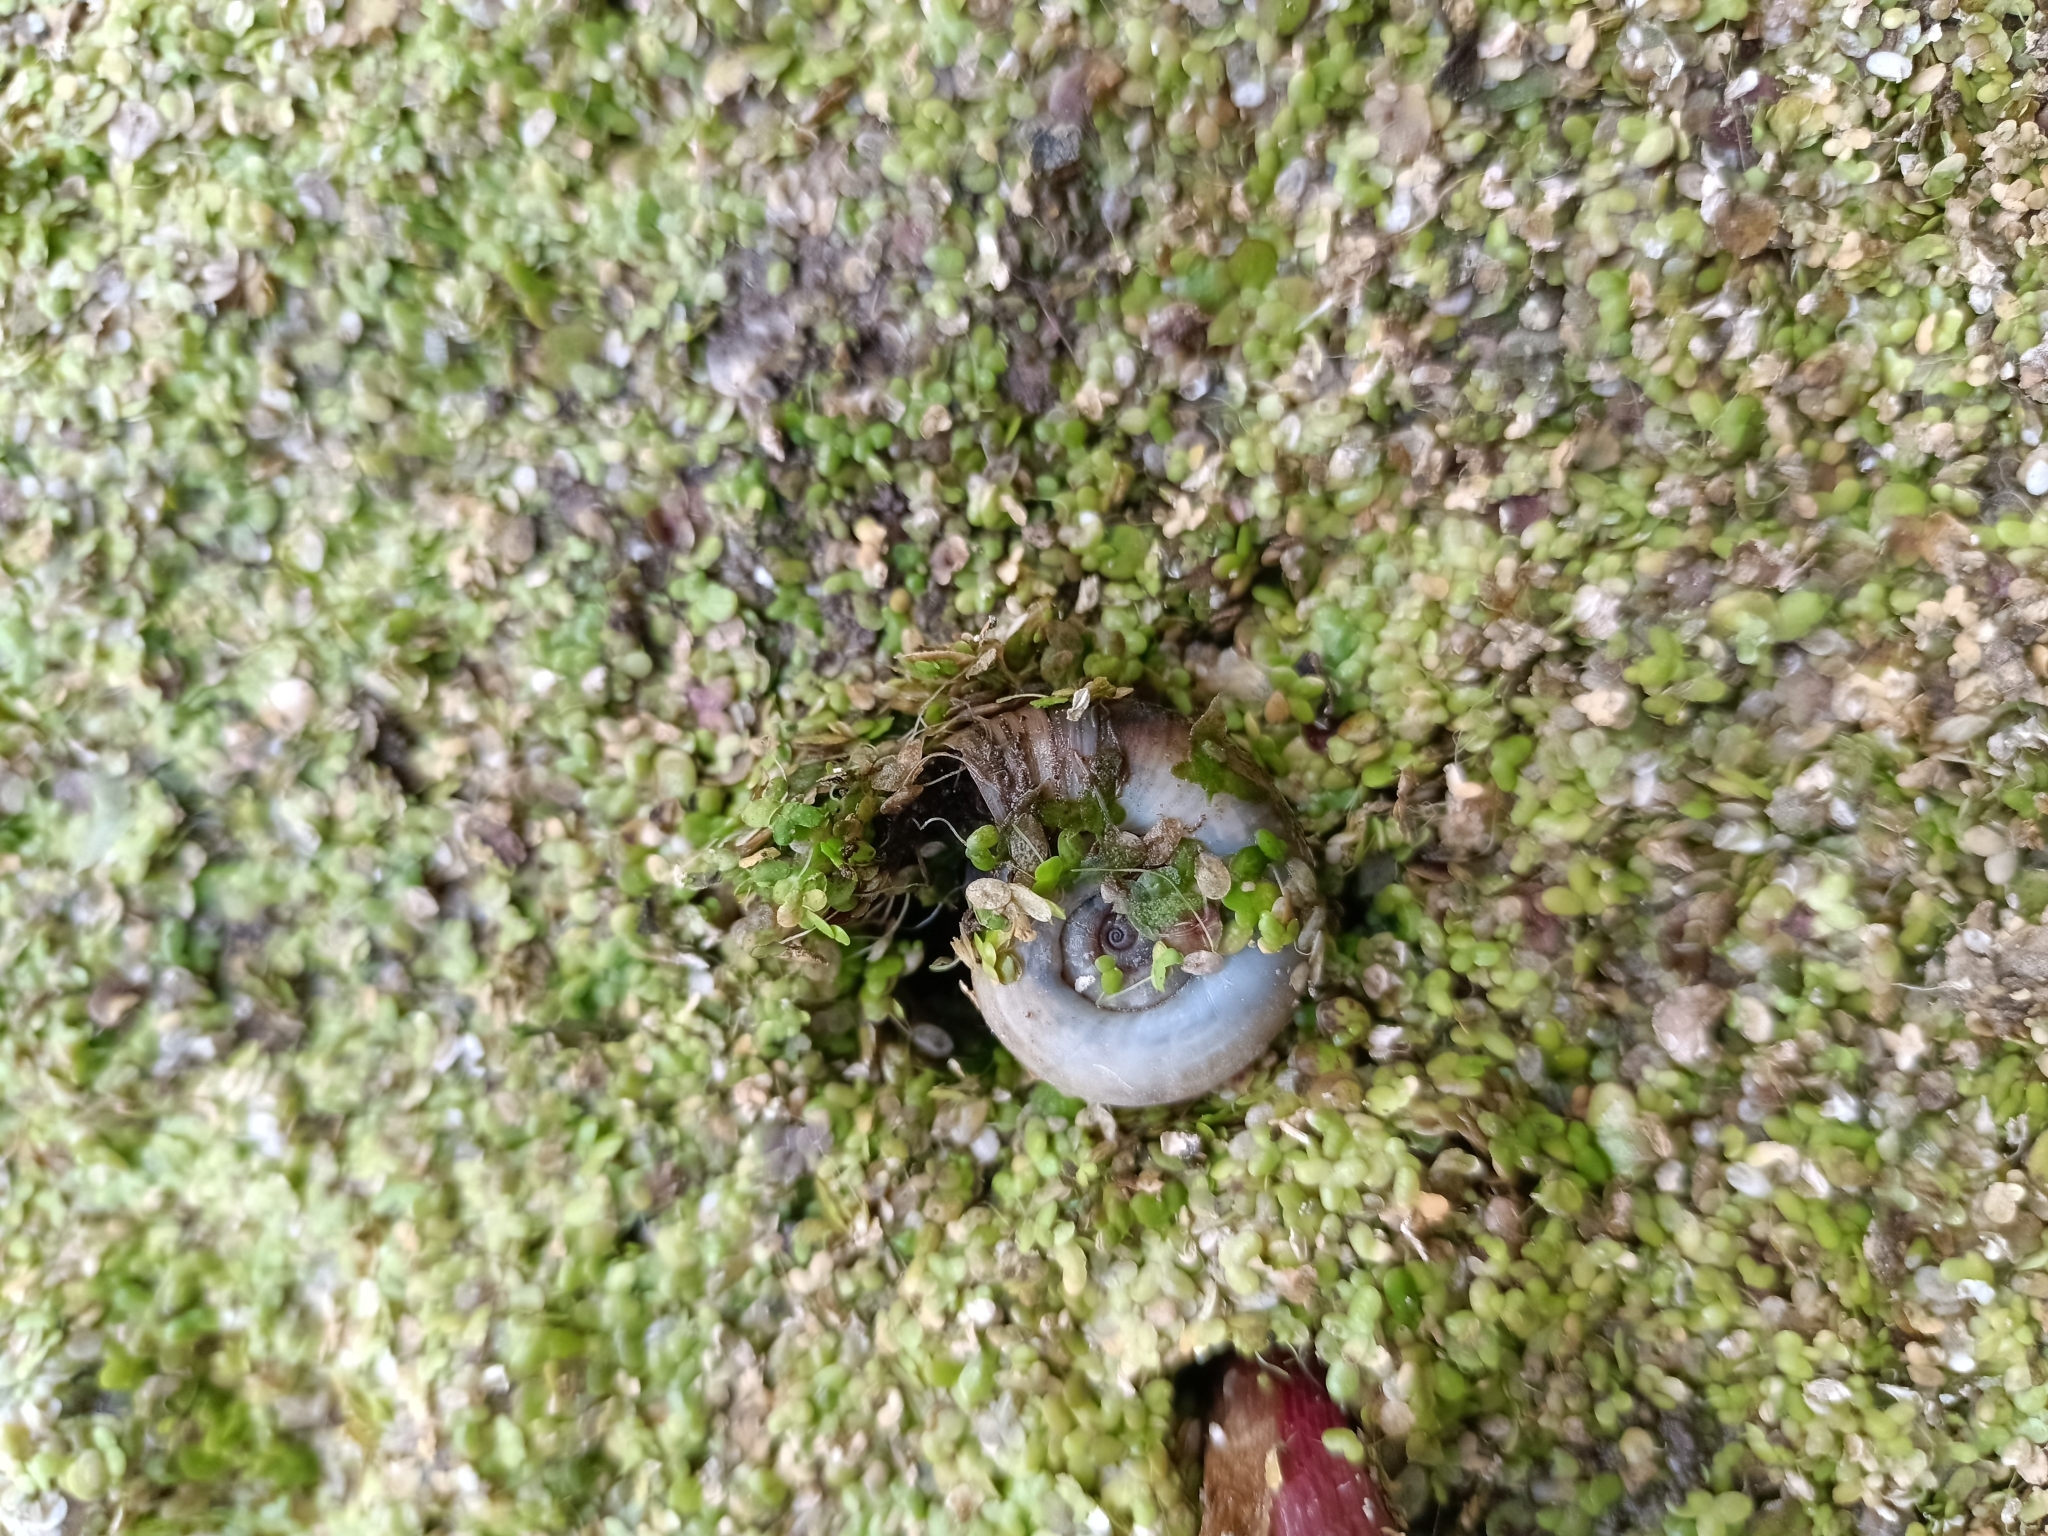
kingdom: Animalia
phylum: Mollusca
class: Gastropoda
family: Planorbidae
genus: Planorbarius
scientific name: Planorbarius corneus
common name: Great ramshorn
